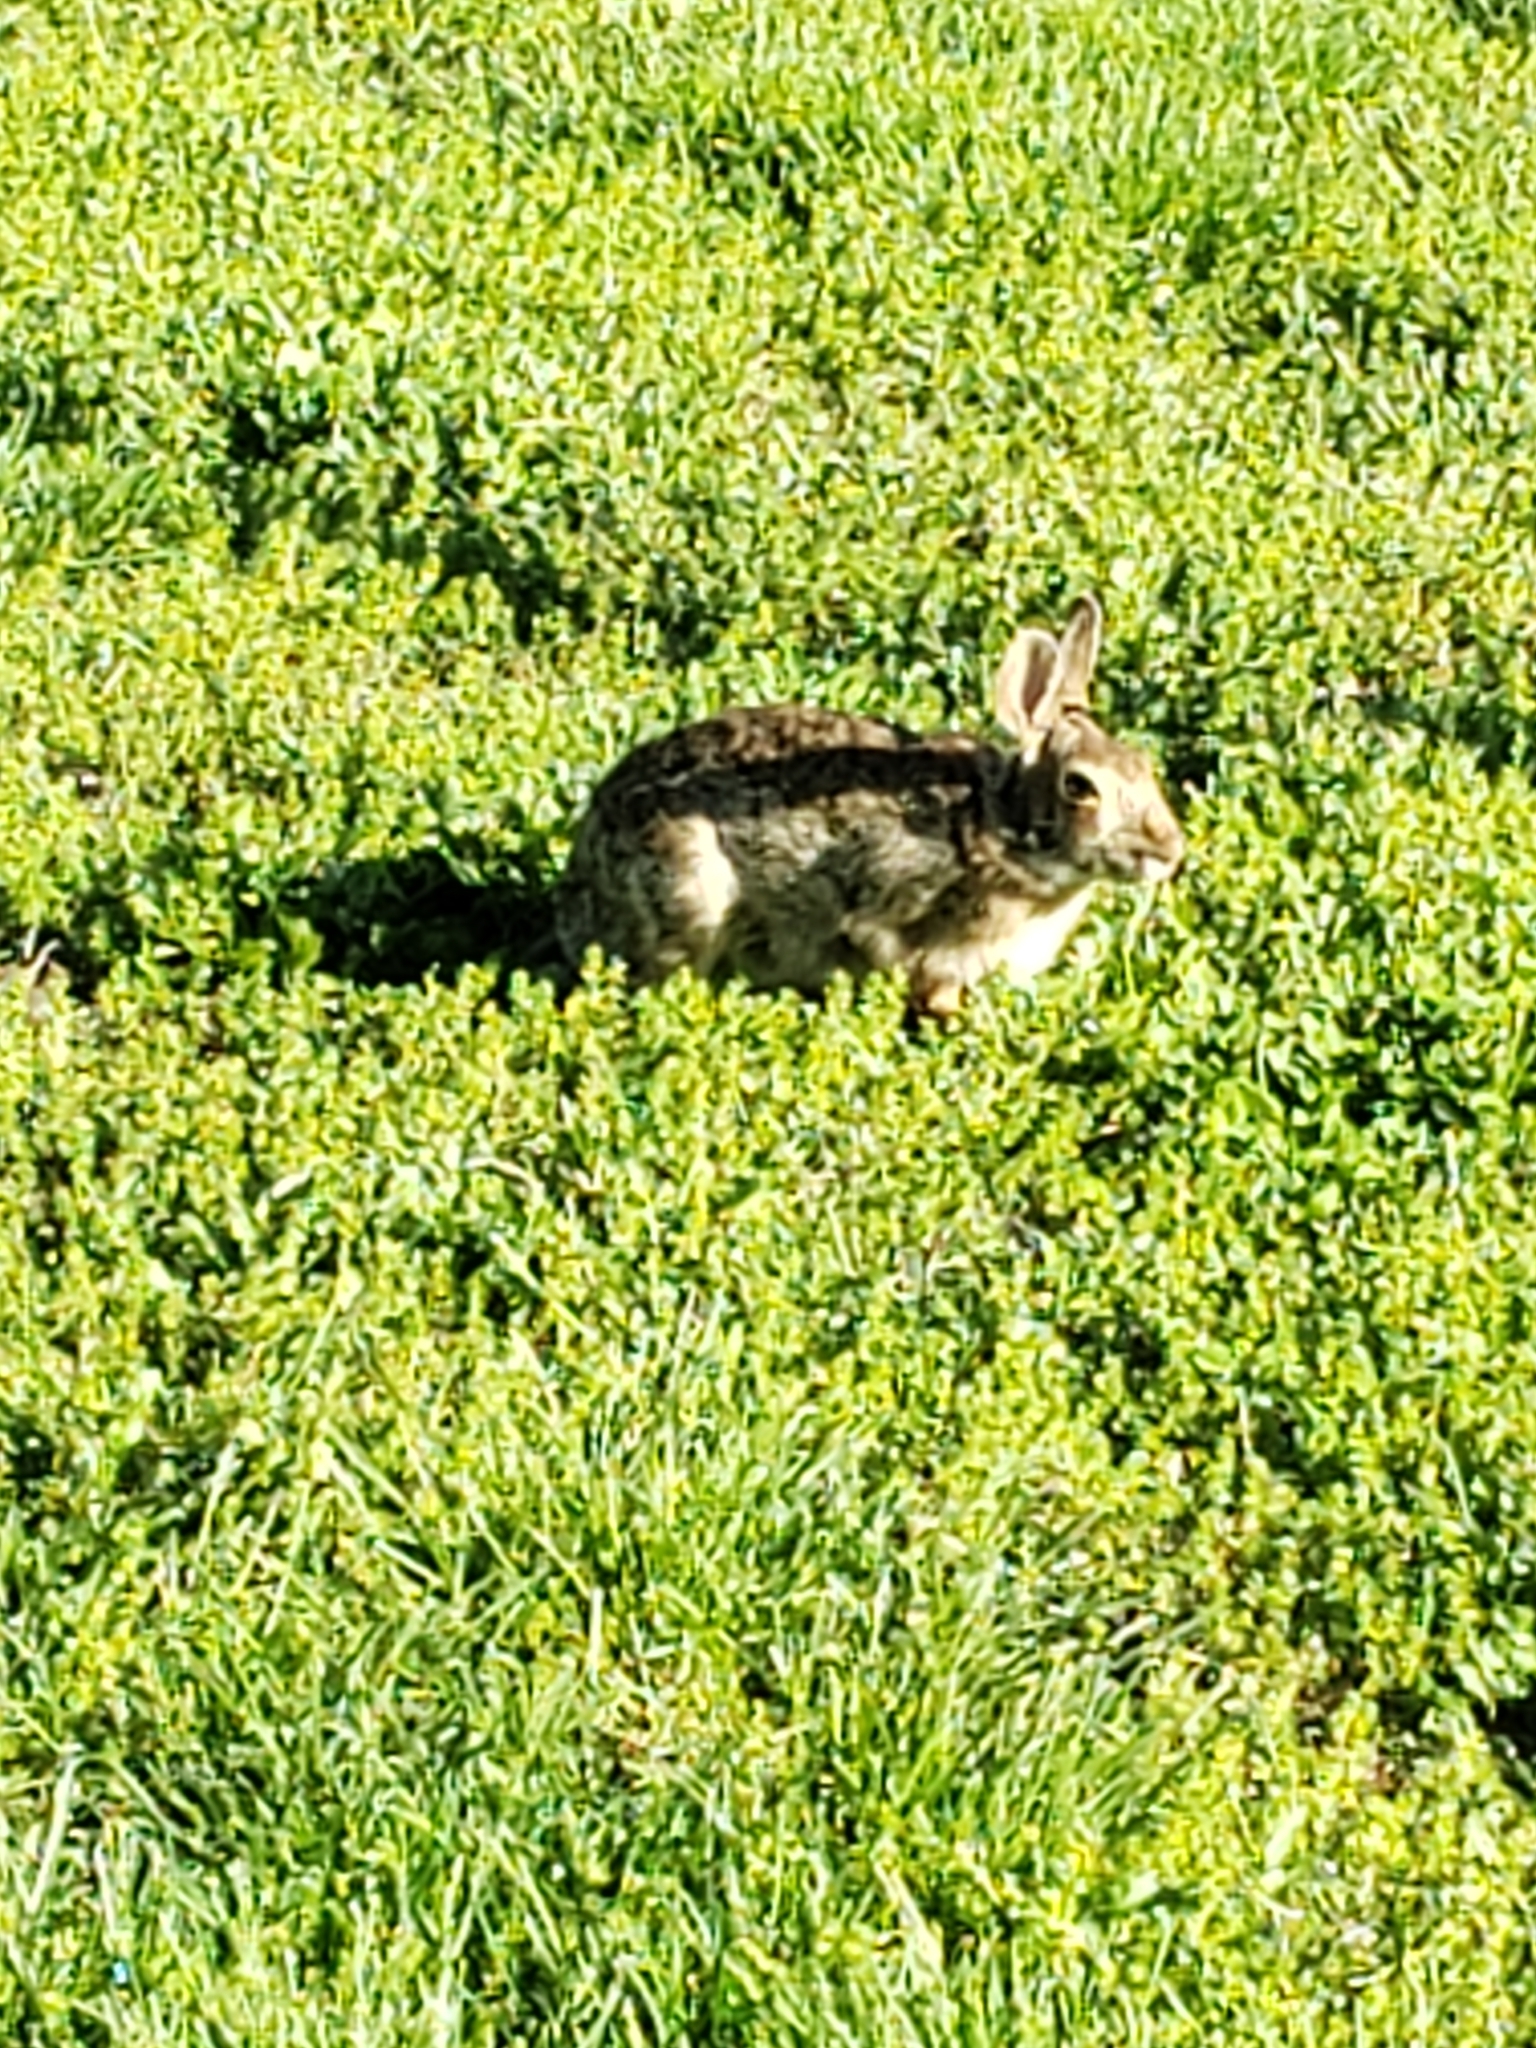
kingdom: Animalia
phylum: Chordata
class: Mammalia
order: Lagomorpha
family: Leporidae
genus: Sylvilagus
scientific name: Sylvilagus floridanus
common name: Eastern cottontail
